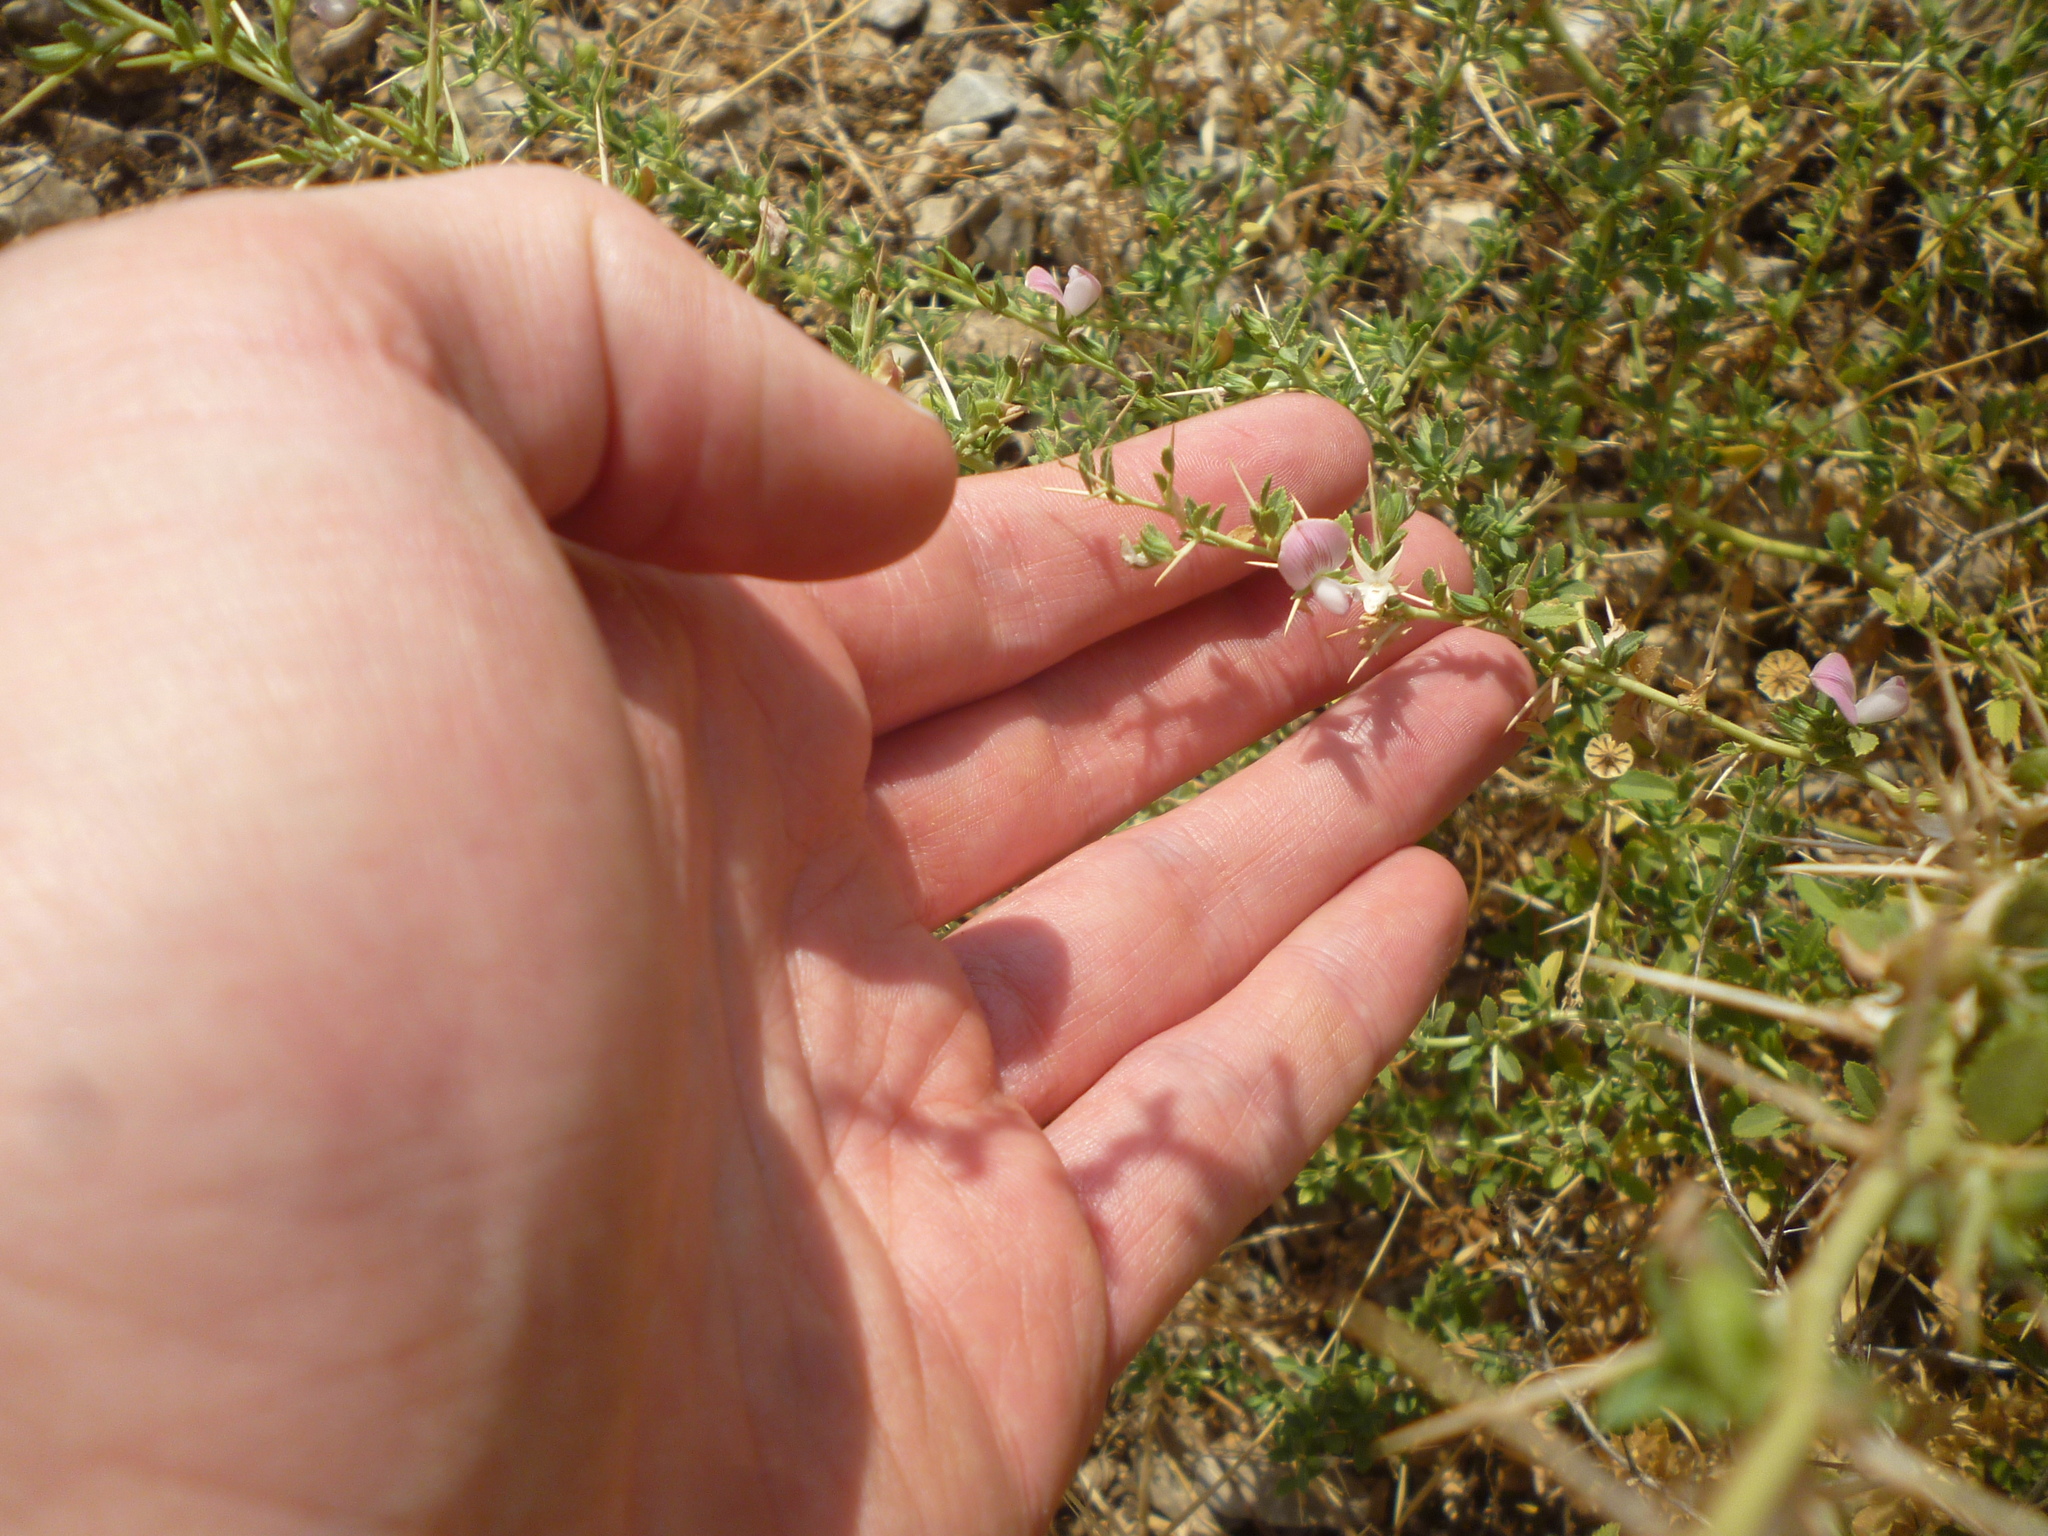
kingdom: Plantae
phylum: Tracheophyta
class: Magnoliopsida
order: Fabales
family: Fabaceae
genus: Ononis
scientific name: Ononis spinosa
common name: Spiny restharrow
